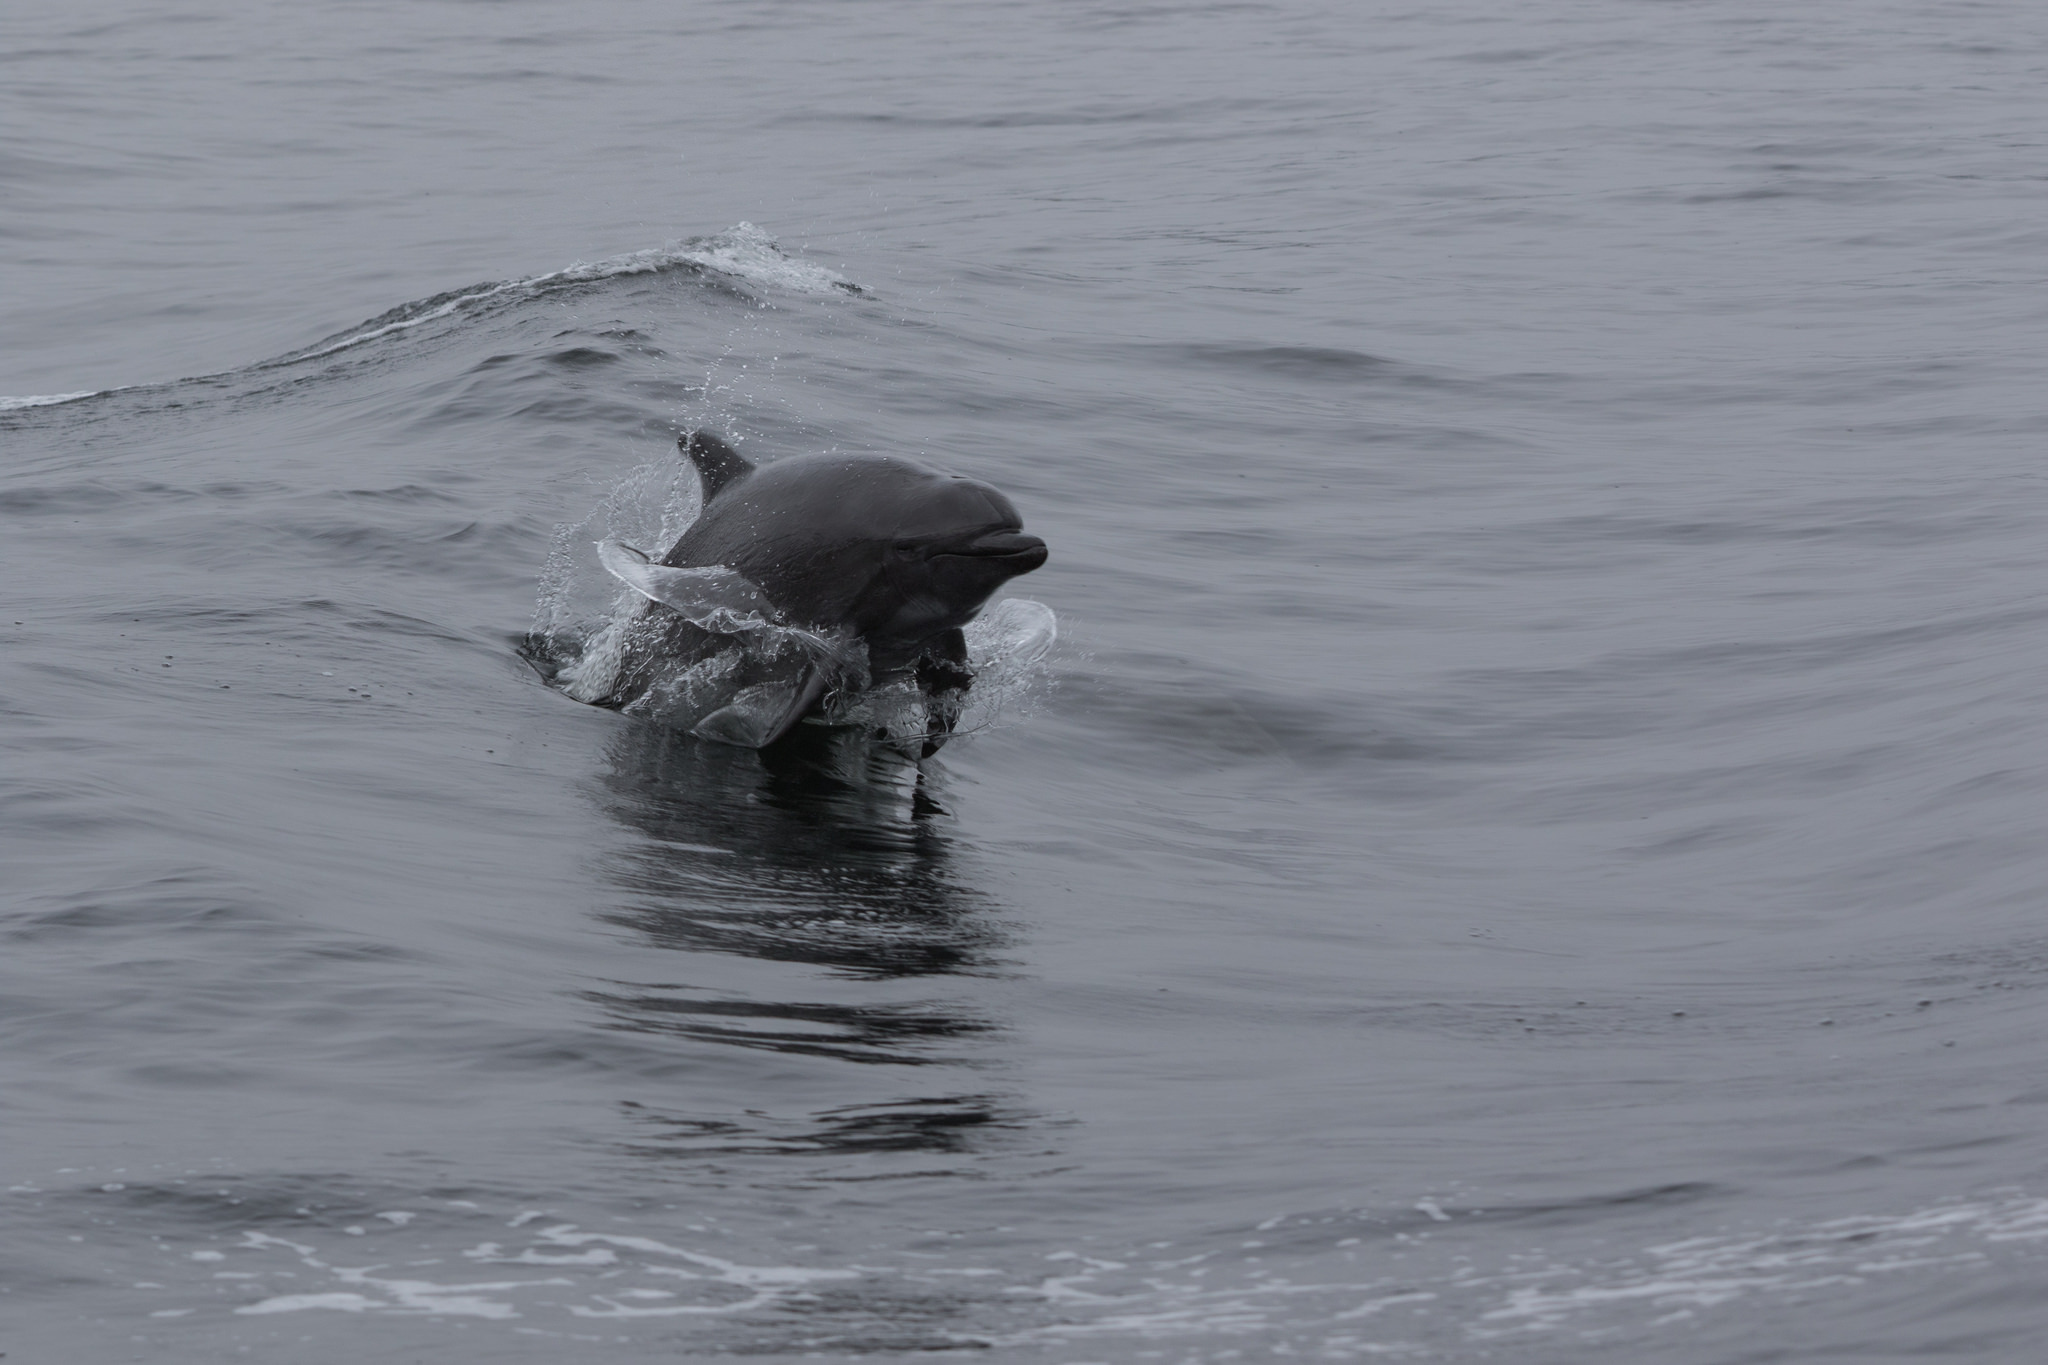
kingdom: Animalia
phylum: Chordata
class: Mammalia
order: Cetacea
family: Delphinidae
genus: Tursiops
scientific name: Tursiops truncatus
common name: Bottlenose dolphin
